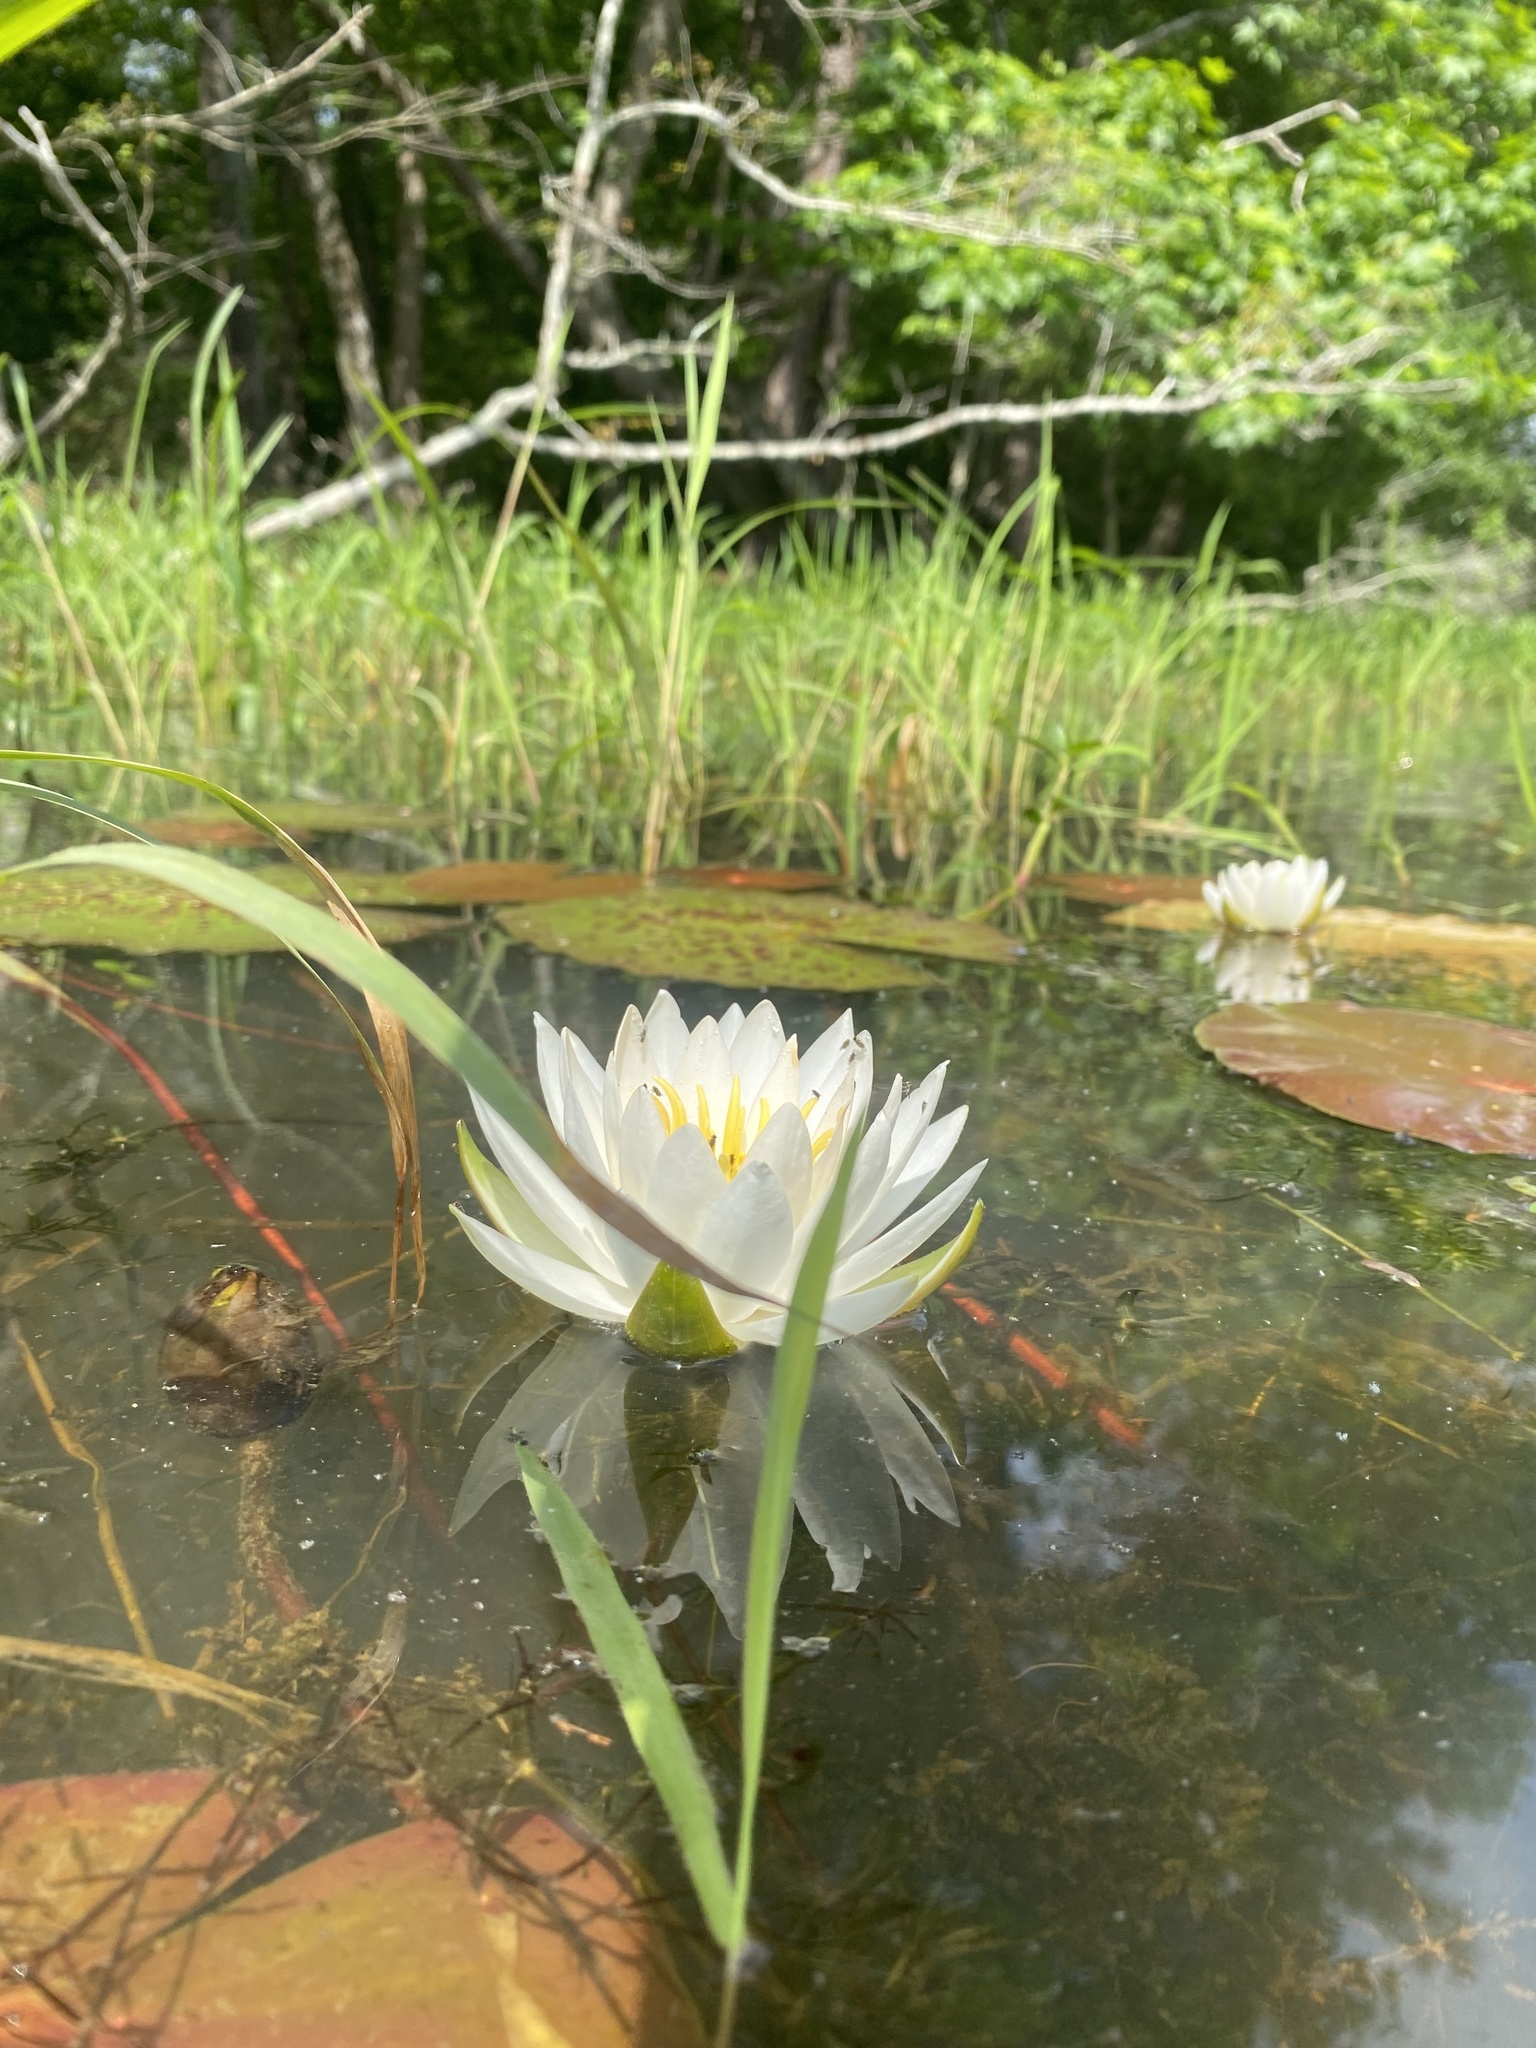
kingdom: Plantae
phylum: Tracheophyta
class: Magnoliopsida
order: Nymphaeales
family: Nymphaeaceae
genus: Nymphaea
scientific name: Nymphaea odorata
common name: Fragrant water-lily
